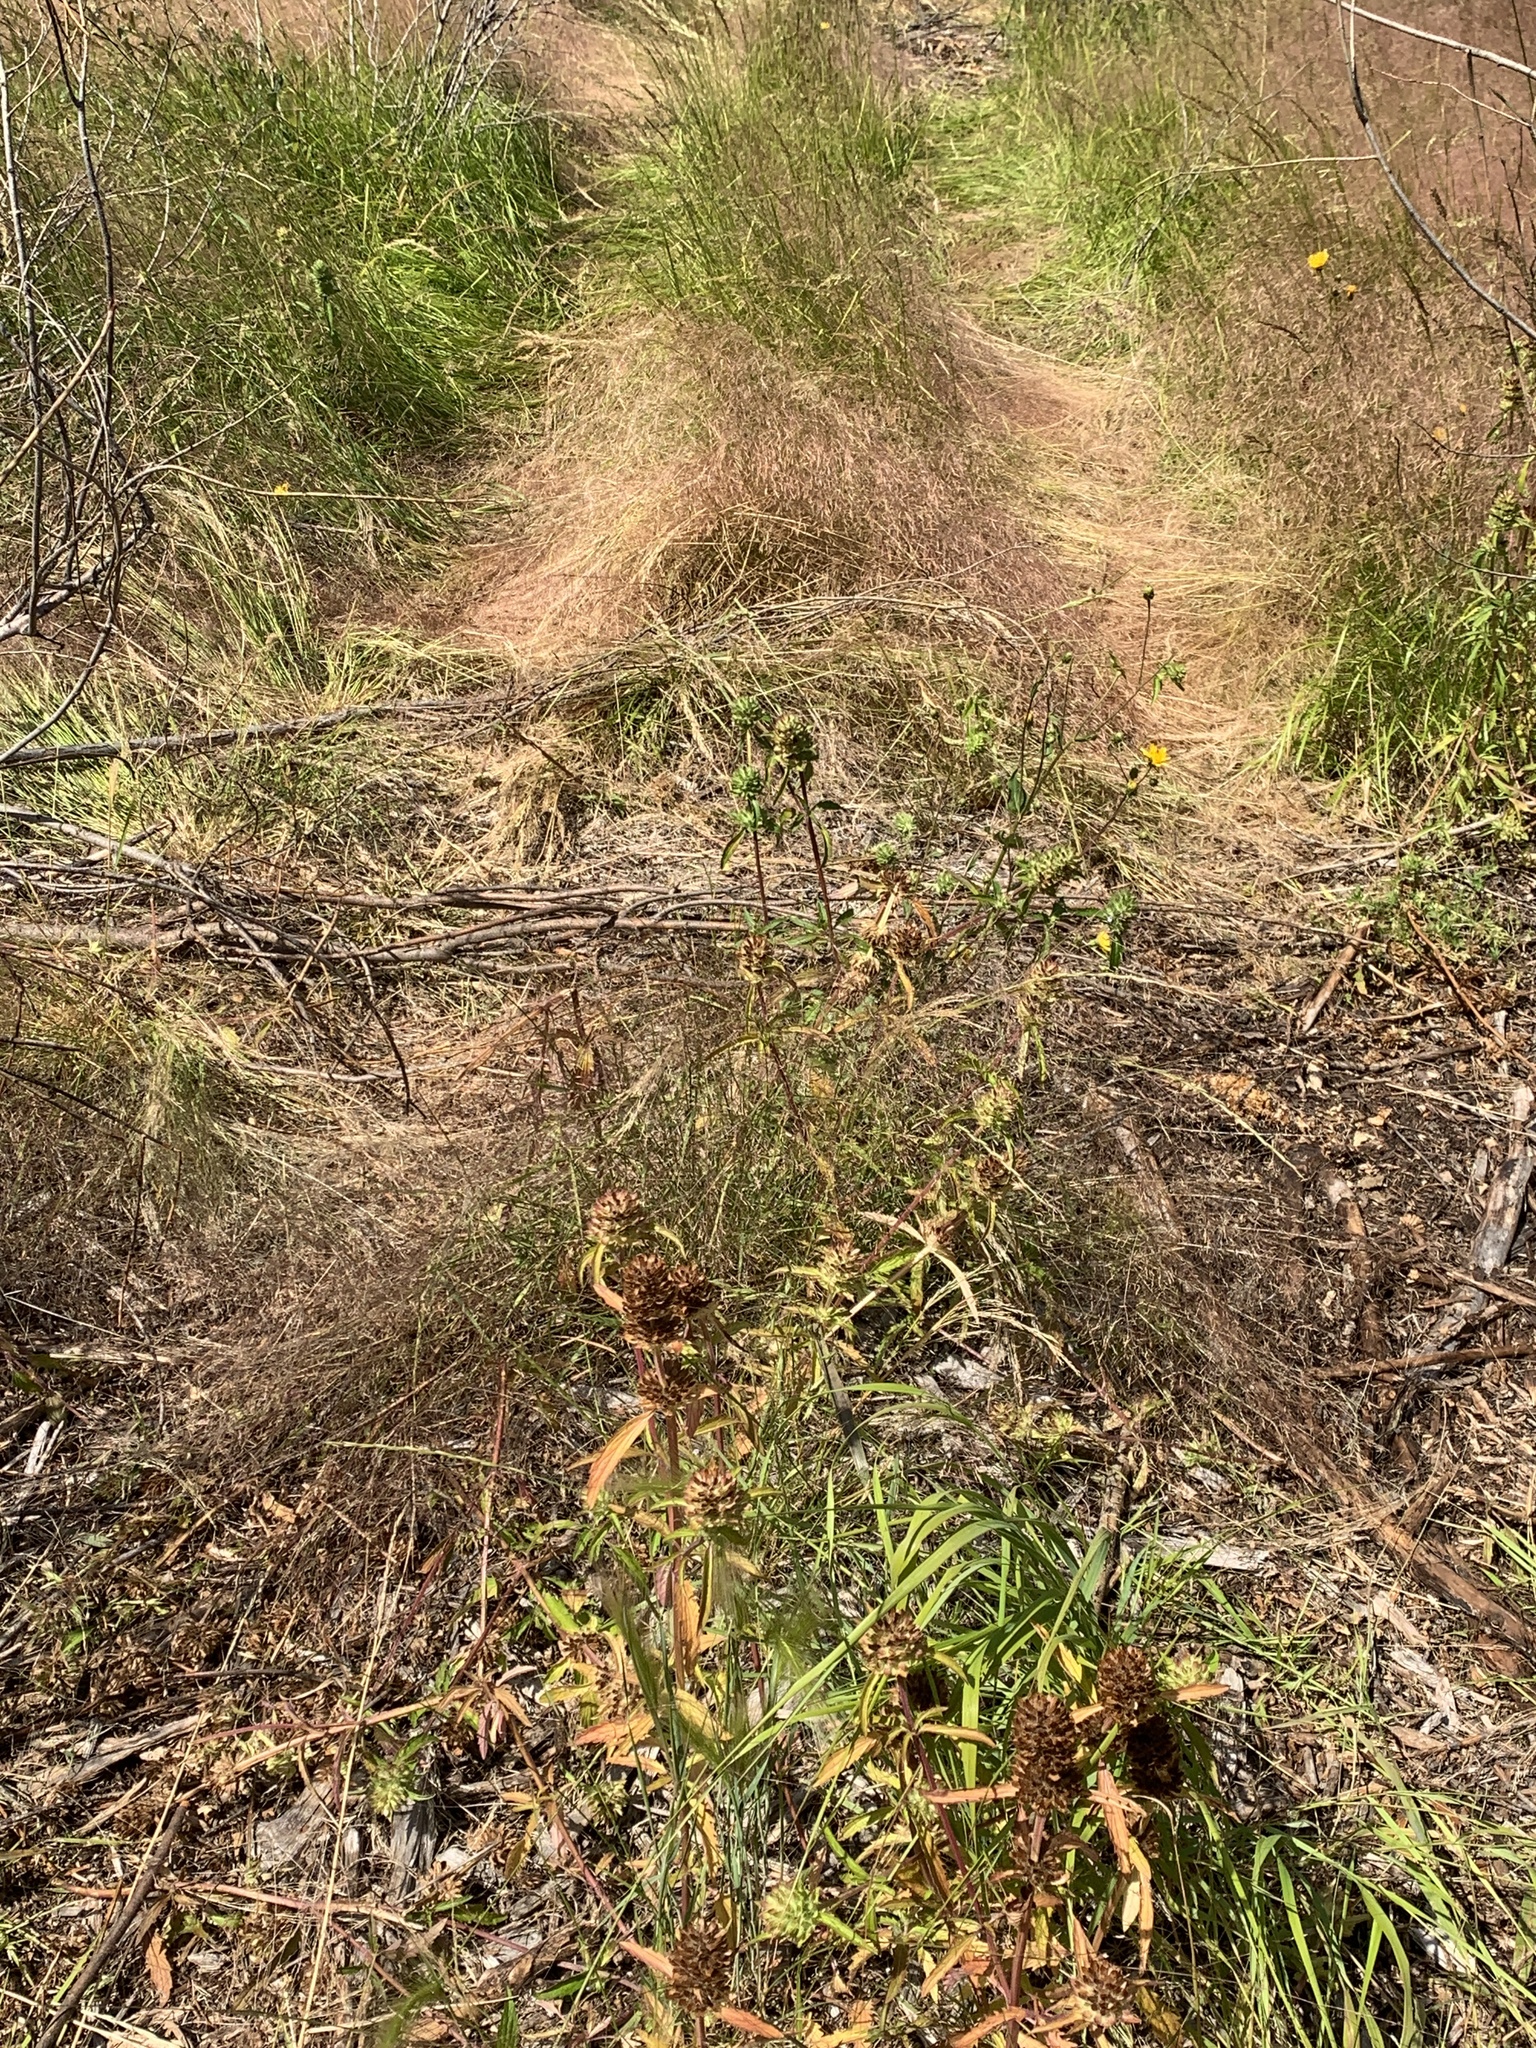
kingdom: Plantae
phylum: Tracheophyta
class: Magnoliopsida
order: Lamiales
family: Lamiaceae
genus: Dracocephalum
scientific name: Dracocephalum parviflorum
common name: American dragonhead
